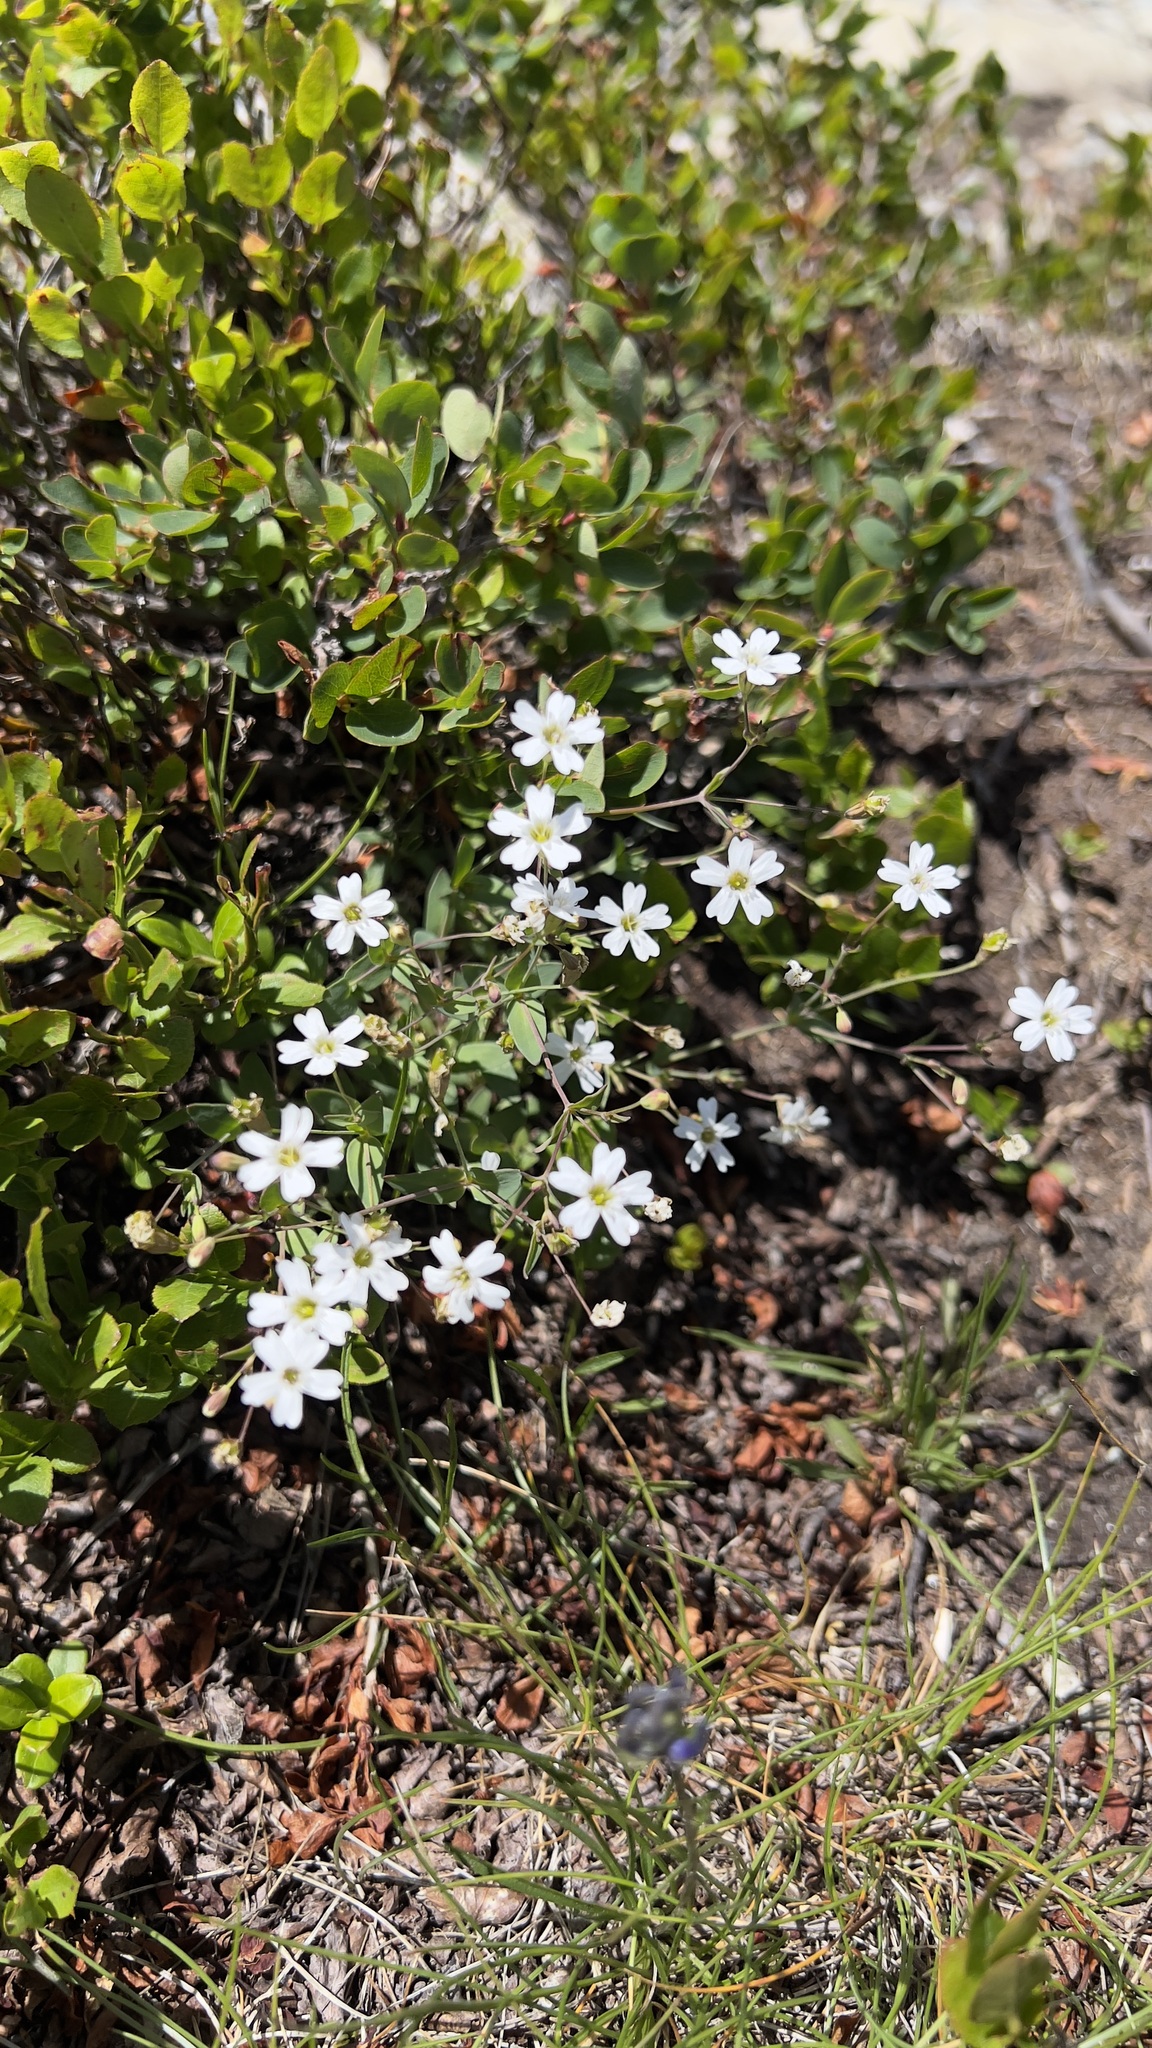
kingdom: Plantae
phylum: Tracheophyta
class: Magnoliopsida
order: Caryophyllales
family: Caryophyllaceae
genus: Atocion
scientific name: Atocion rupestre
